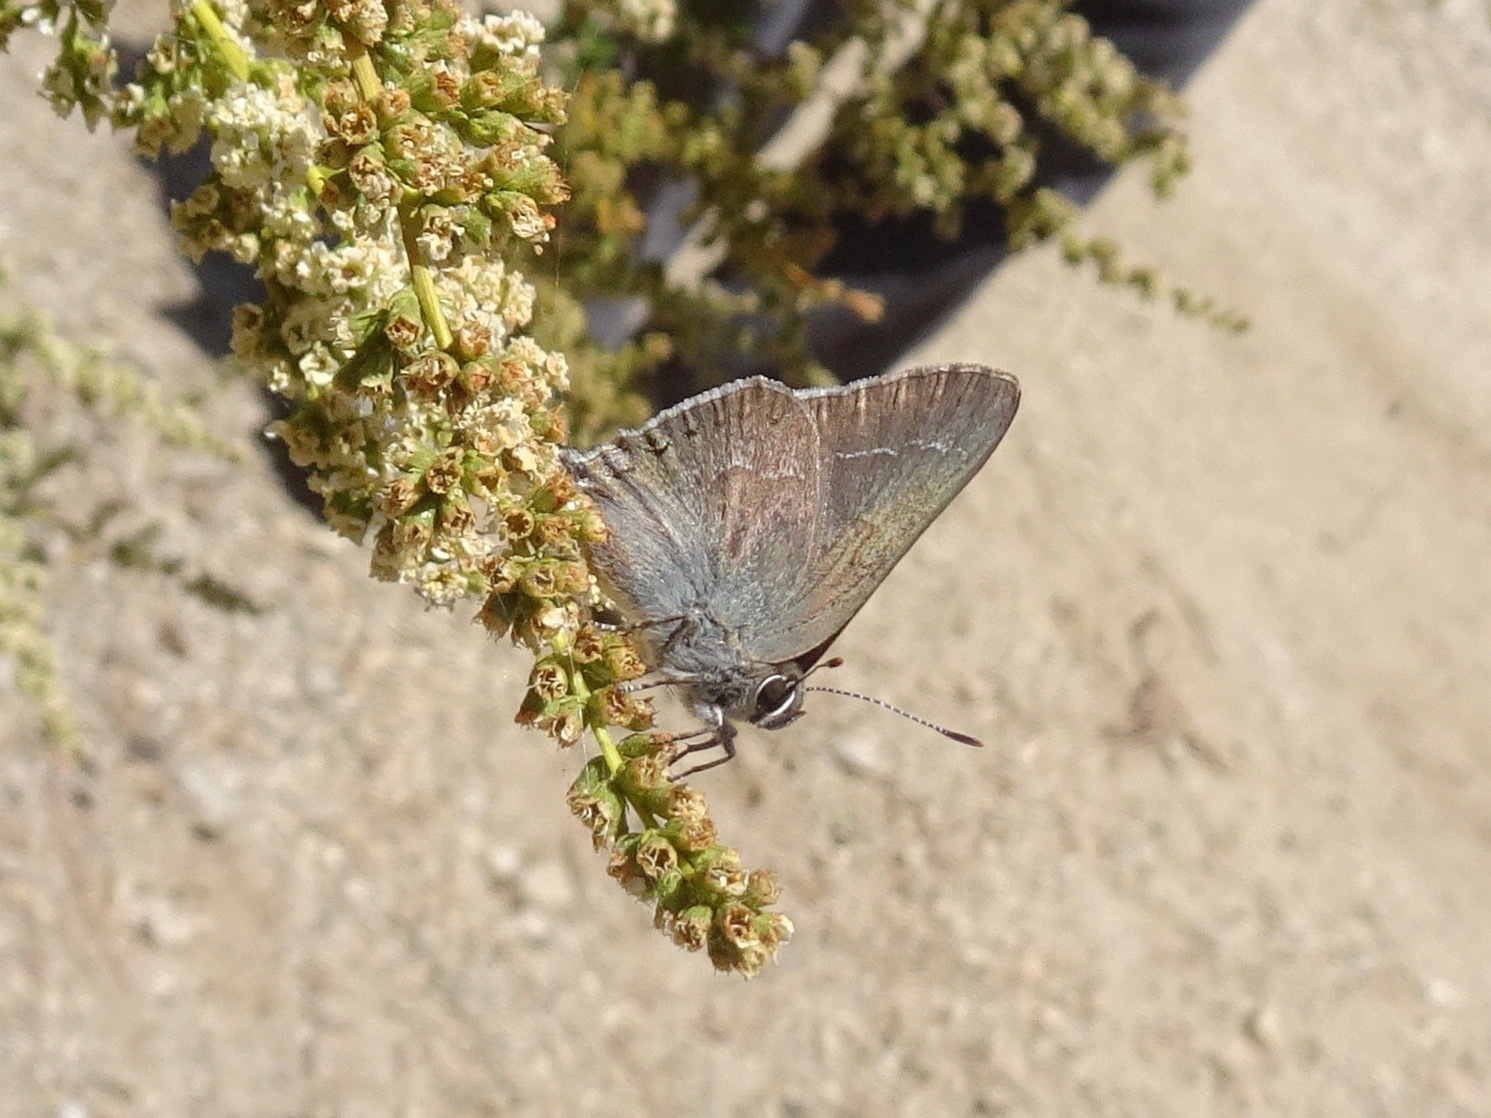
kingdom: Animalia
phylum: Arthropoda
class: Insecta
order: Lepidoptera
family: Lycaenidae
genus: Thecla
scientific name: Thecla tetra
